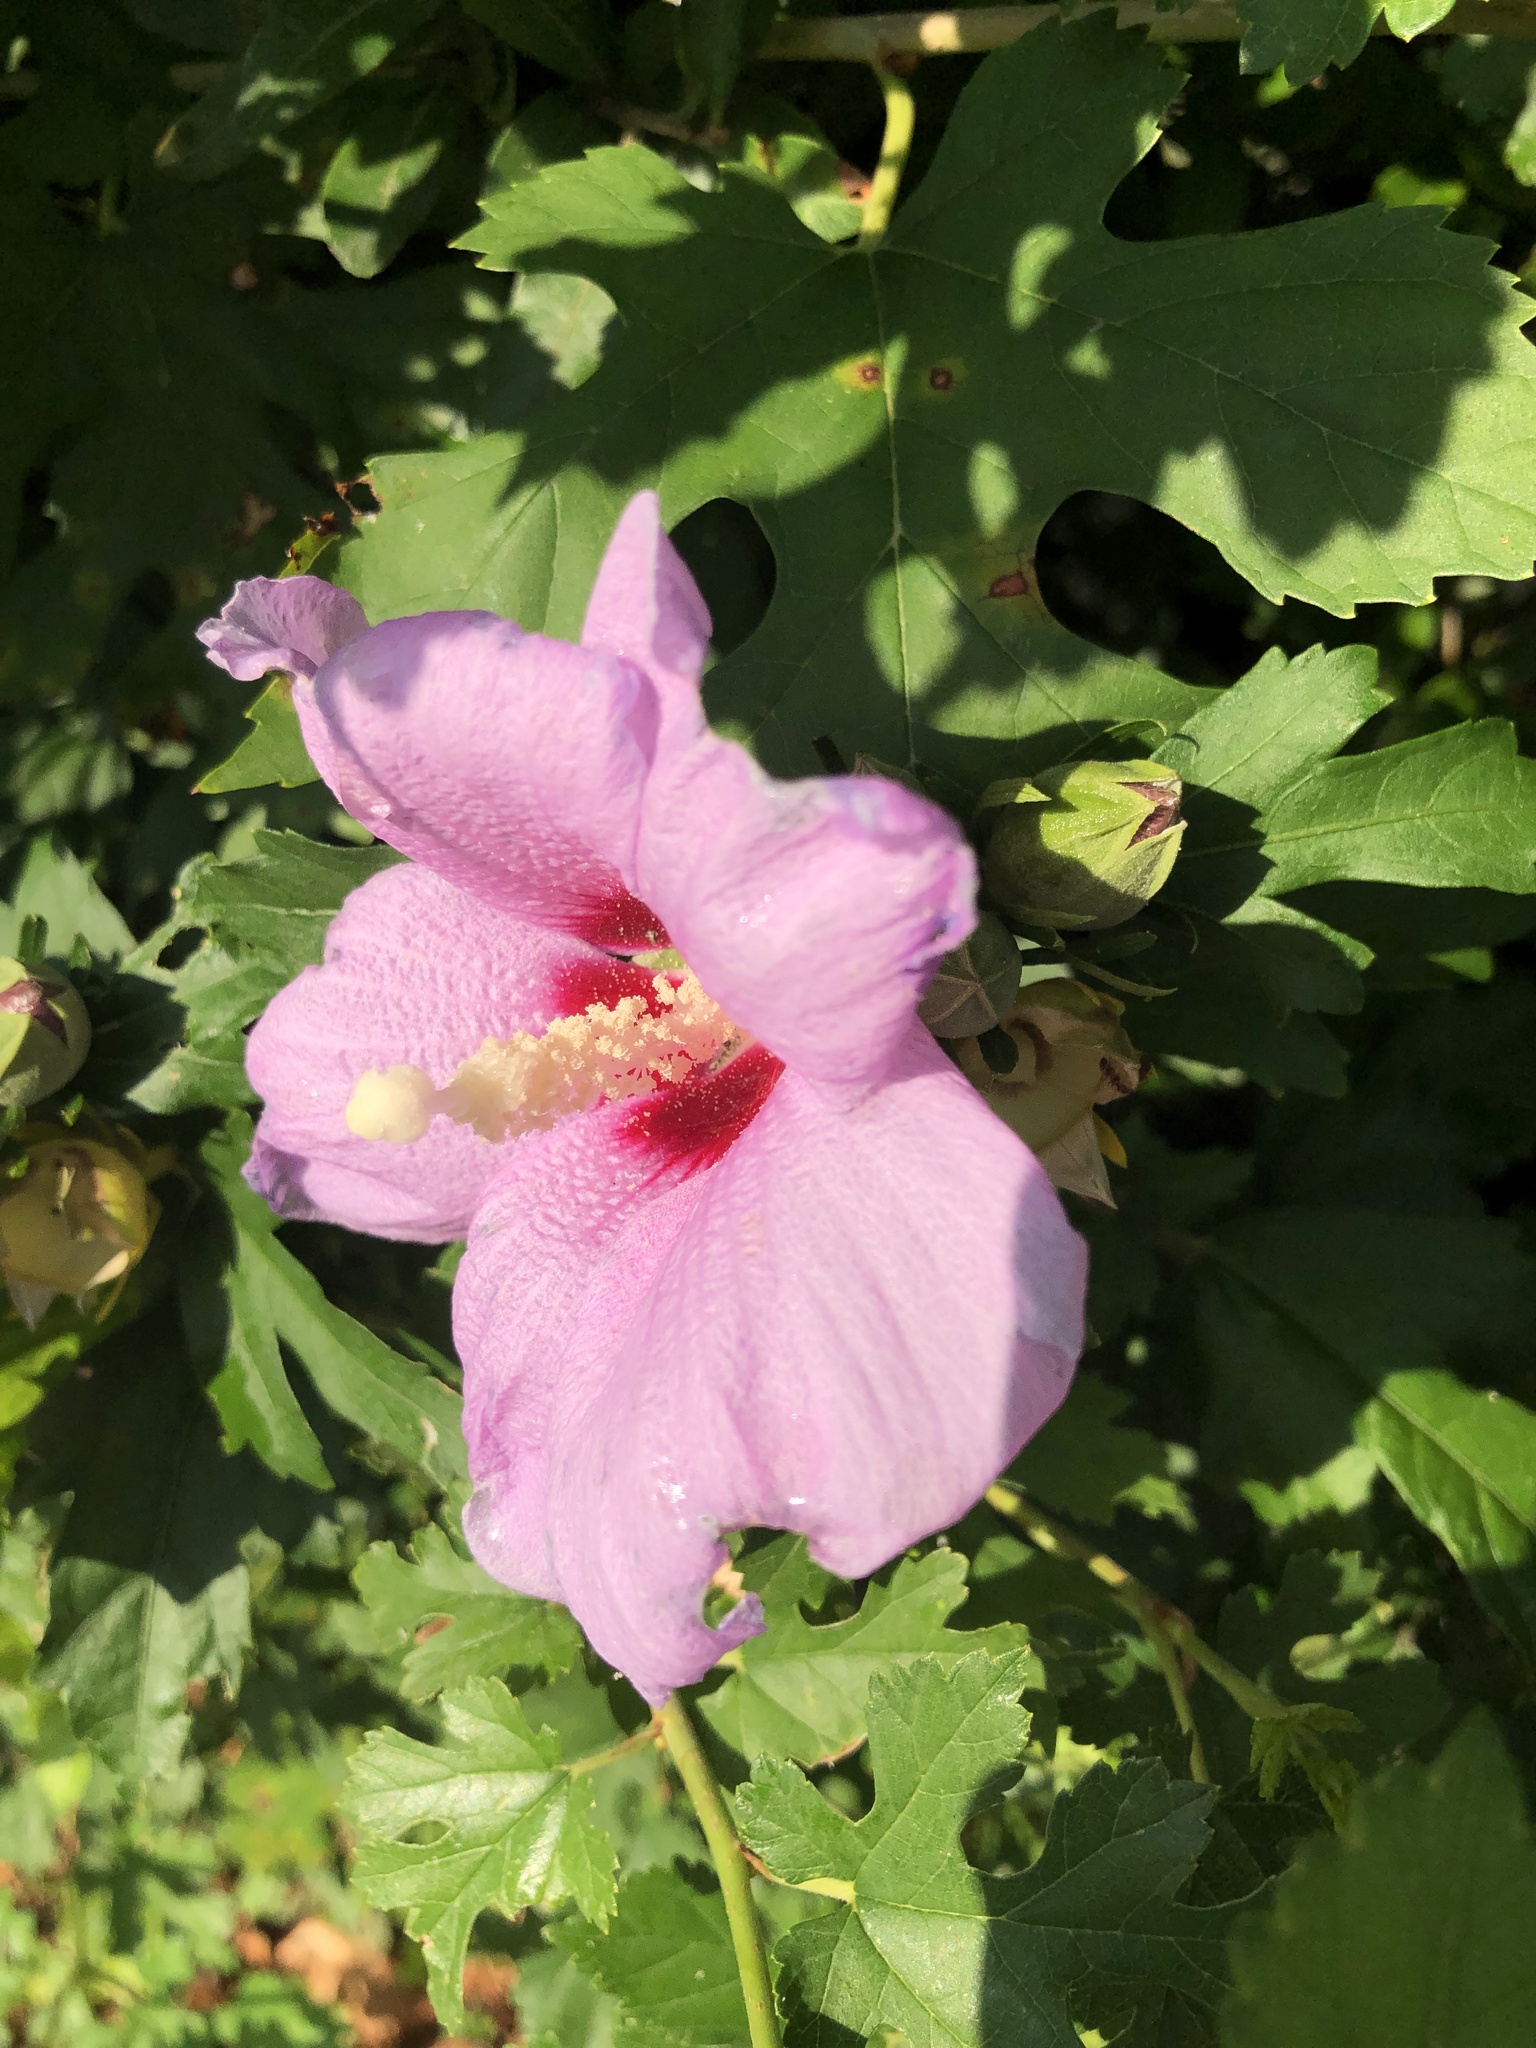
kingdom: Plantae
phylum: Tracheophyta
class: Magnoliopsida
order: Malvales
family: Malvaceae
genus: Hibiscus
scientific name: Hibiscus syriacus
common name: Syrian ketmia
